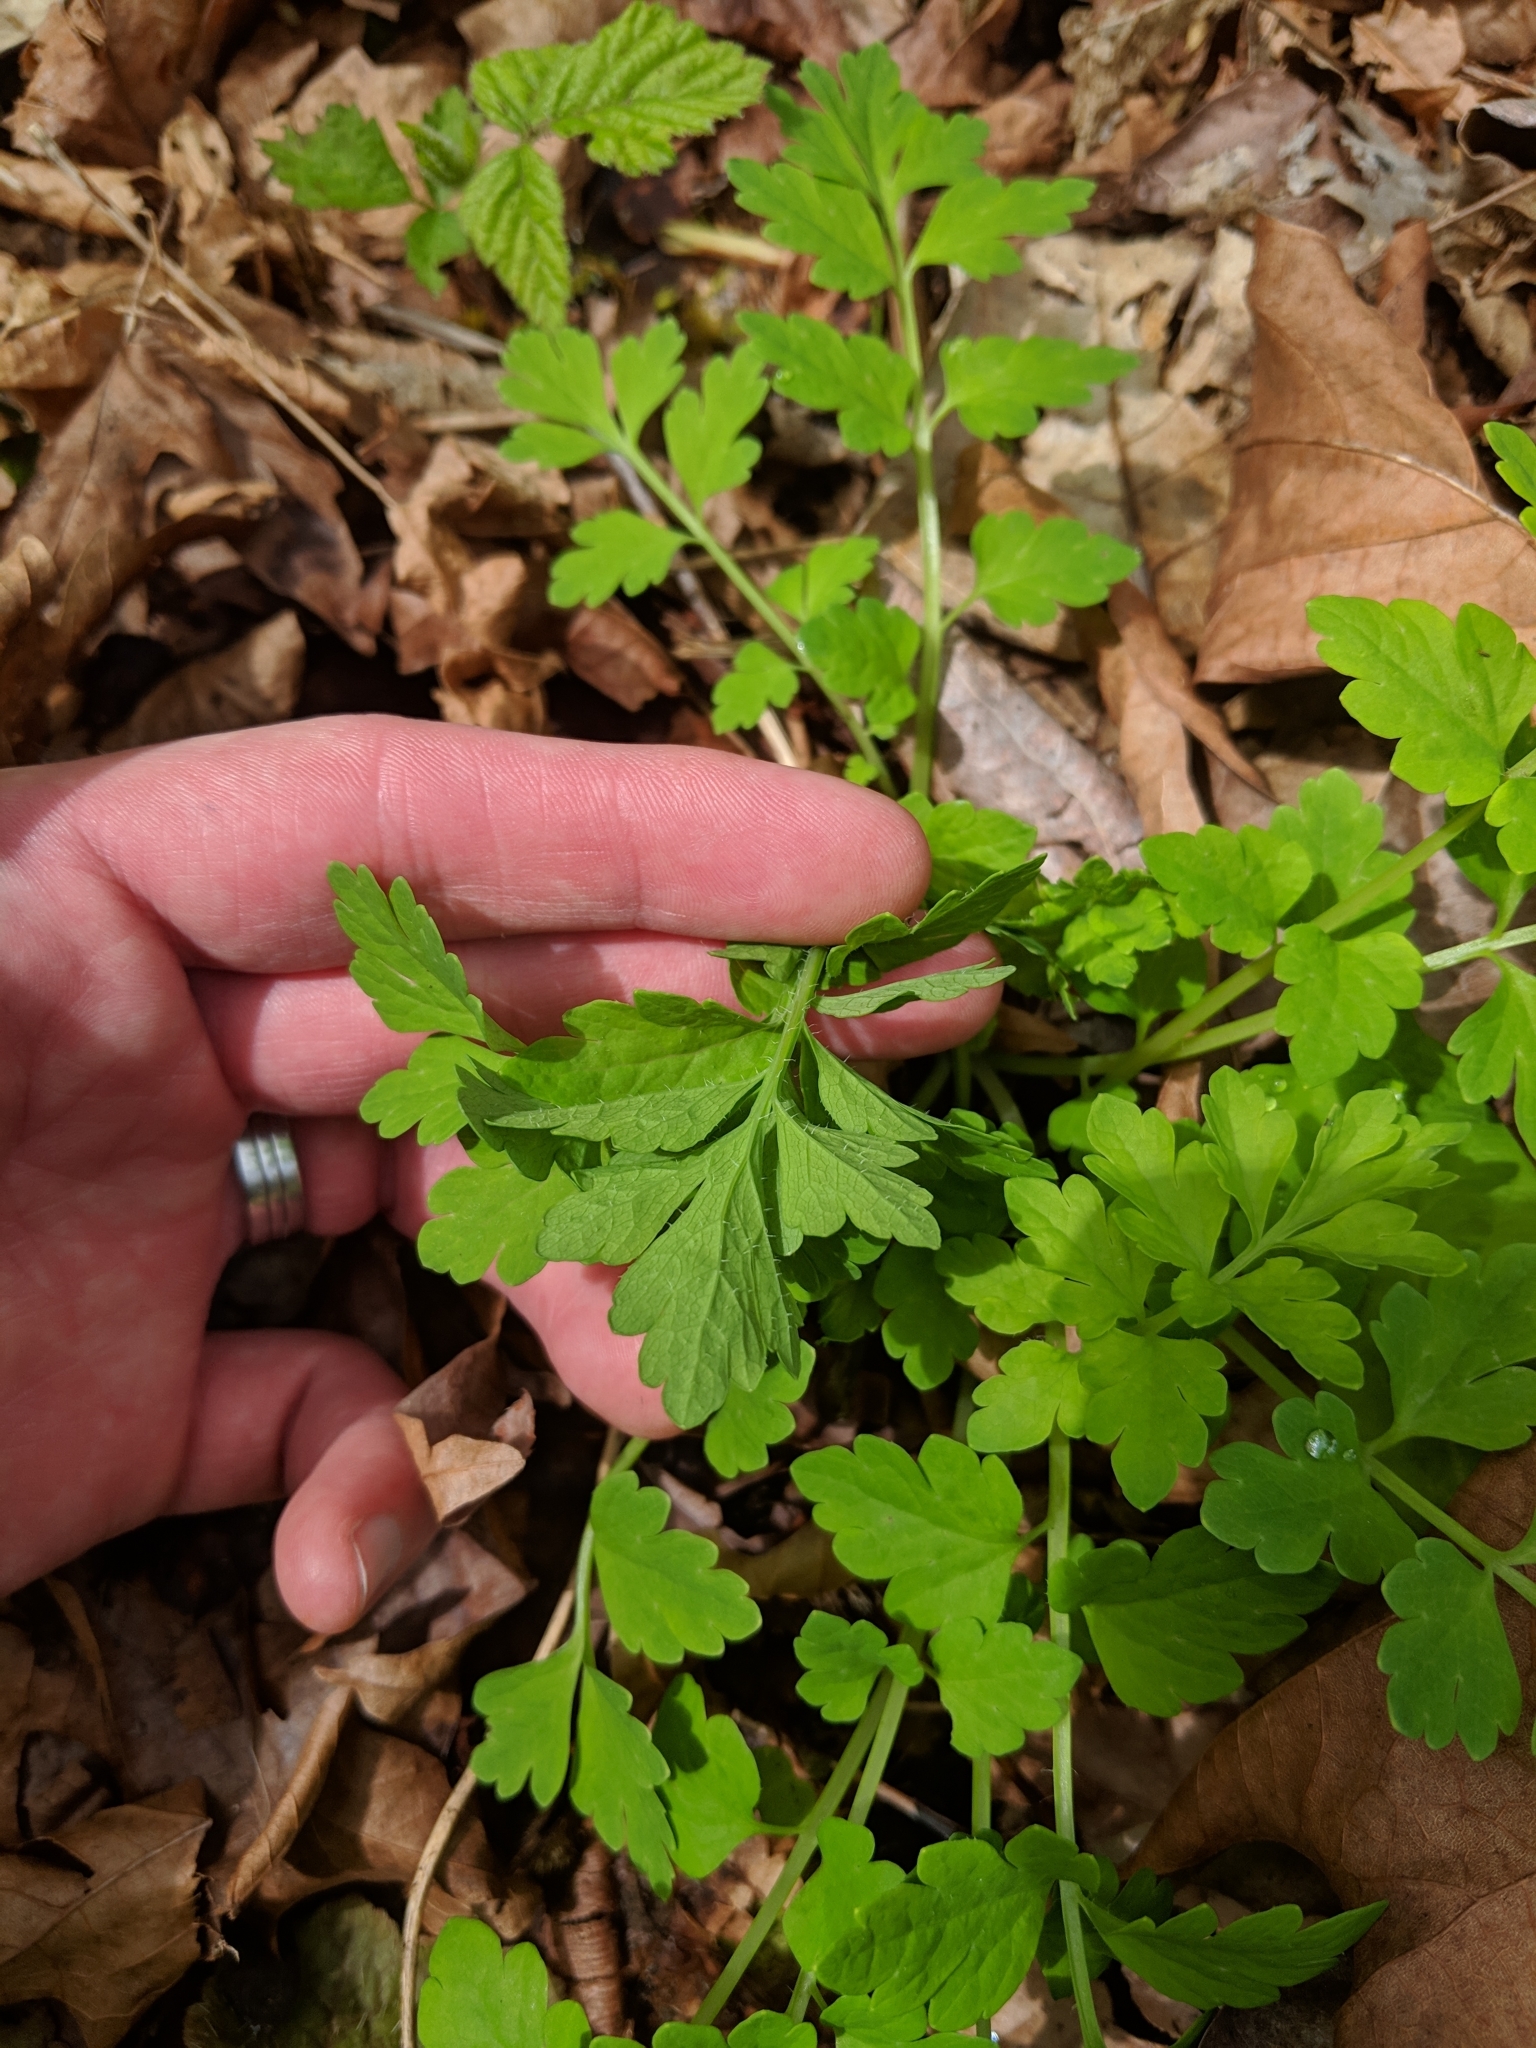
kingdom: Plantae
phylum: Tracheophyta
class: Magnoliopsida
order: Ranunculales
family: Papaveraceae
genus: Papaver
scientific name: Papaver cambricum
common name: Poppy
